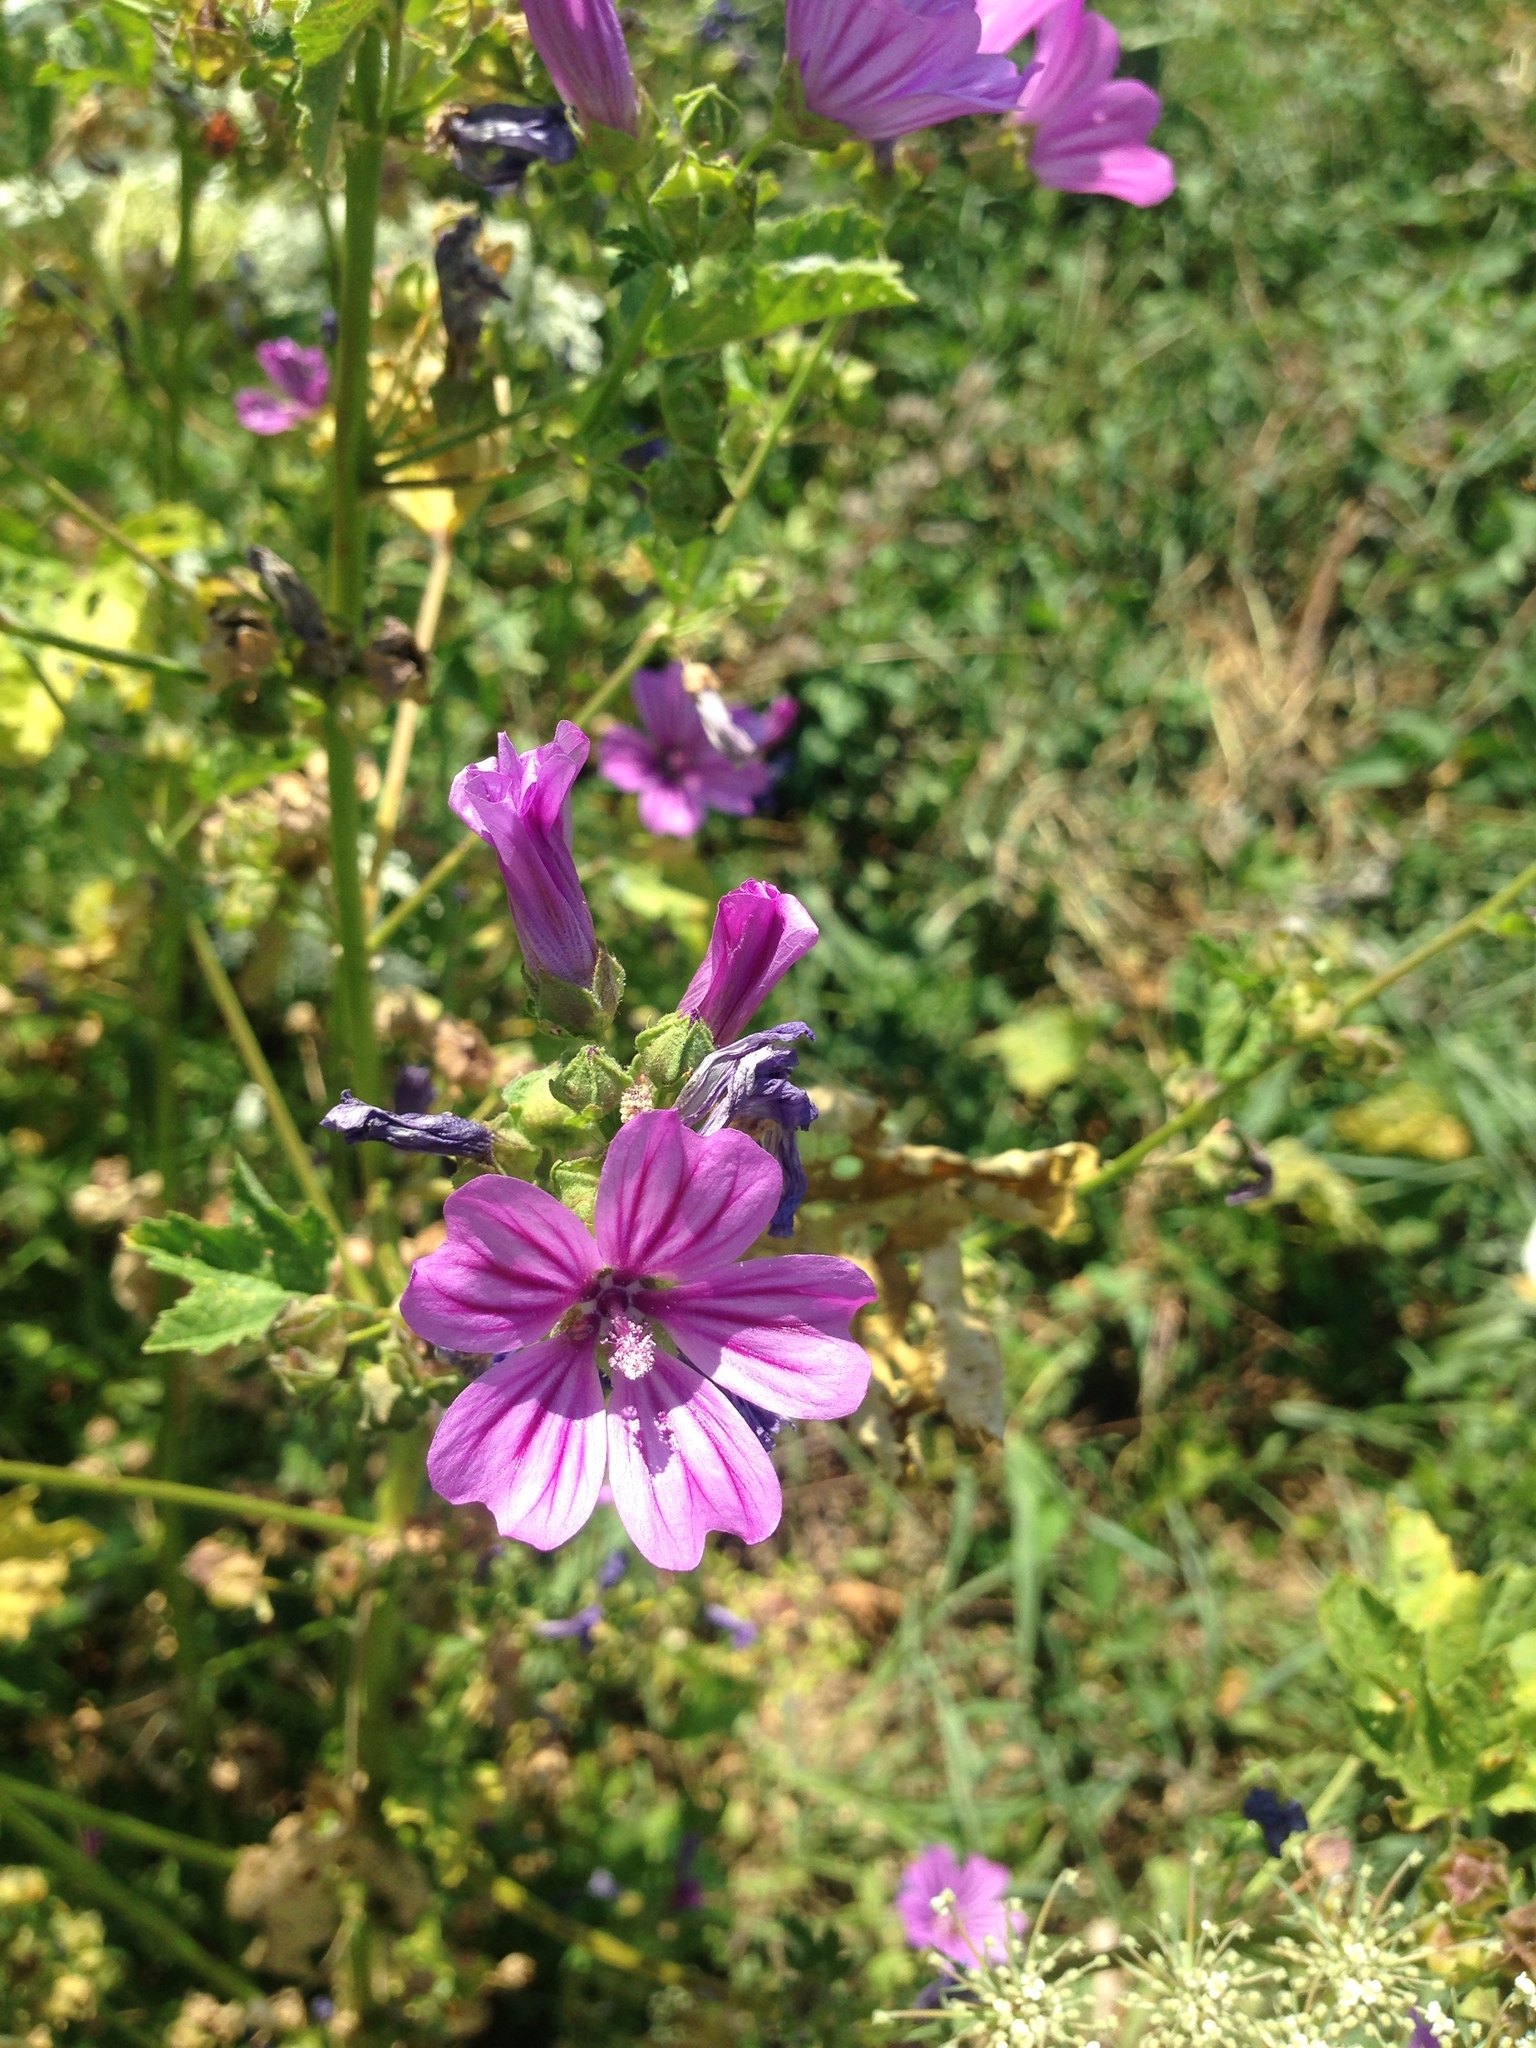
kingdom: Plantae
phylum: Tracheophyta
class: Magnoliopsida
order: Malvales
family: Malvaceae
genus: Malva
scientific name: Malva sylvestris
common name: Common mallow
